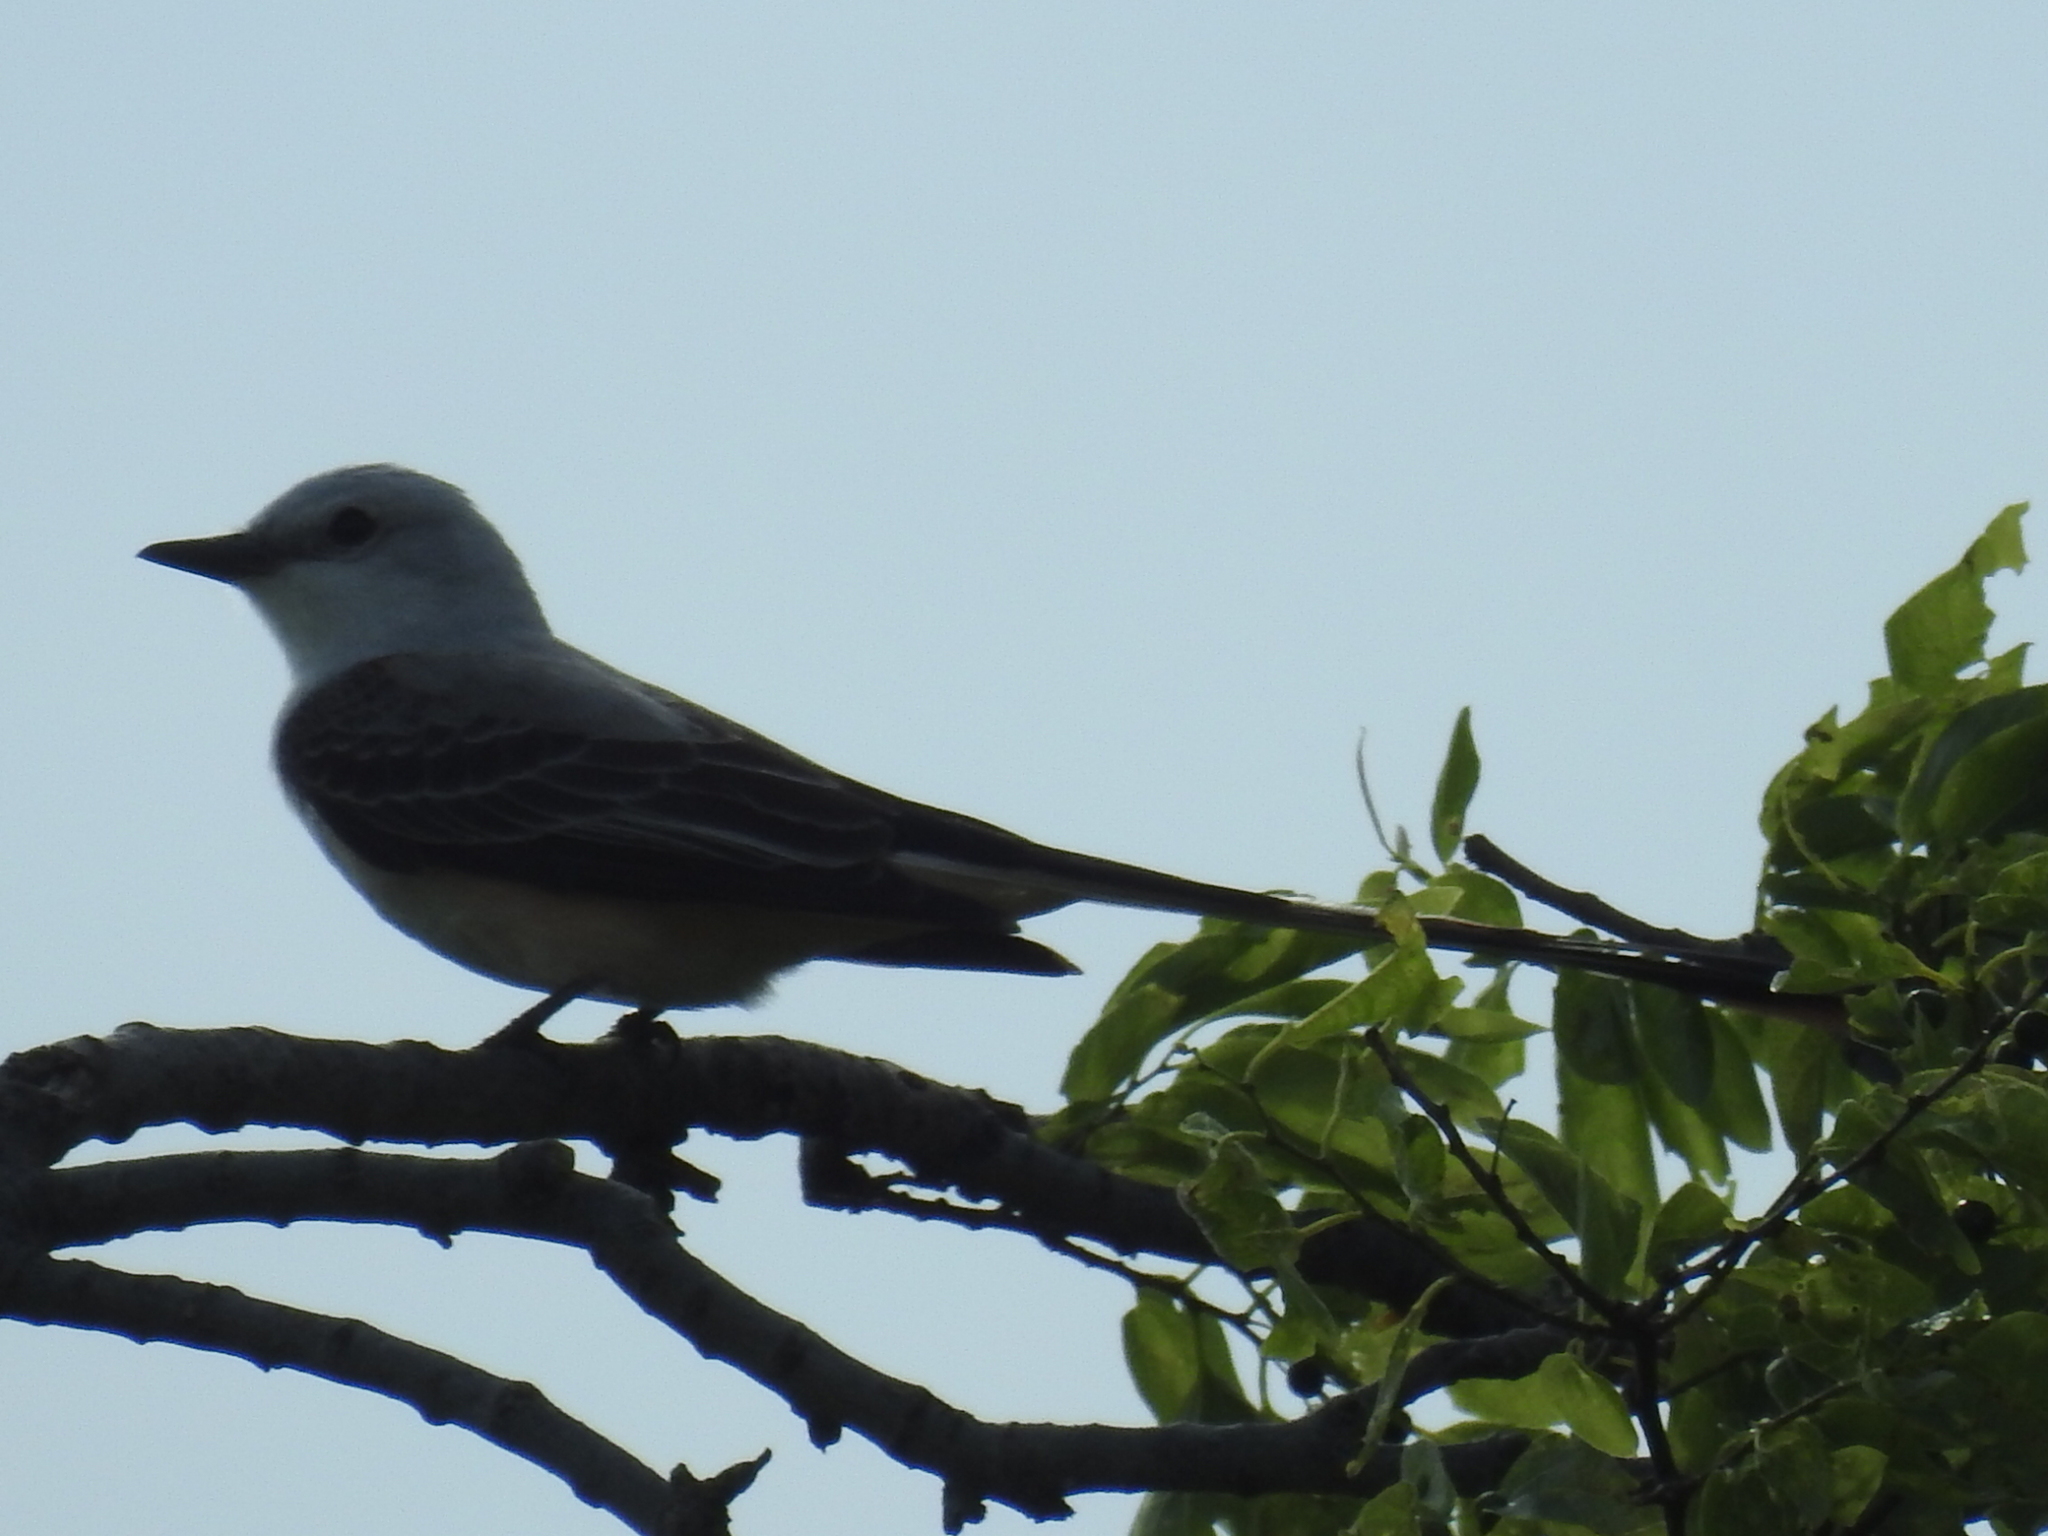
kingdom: Animalia
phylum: Chordata
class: Aves
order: Passeriformes
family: Tyrannidae
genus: Tyrannus
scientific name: Tyrannus forficatus
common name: Scissor-tailed flycatcher
